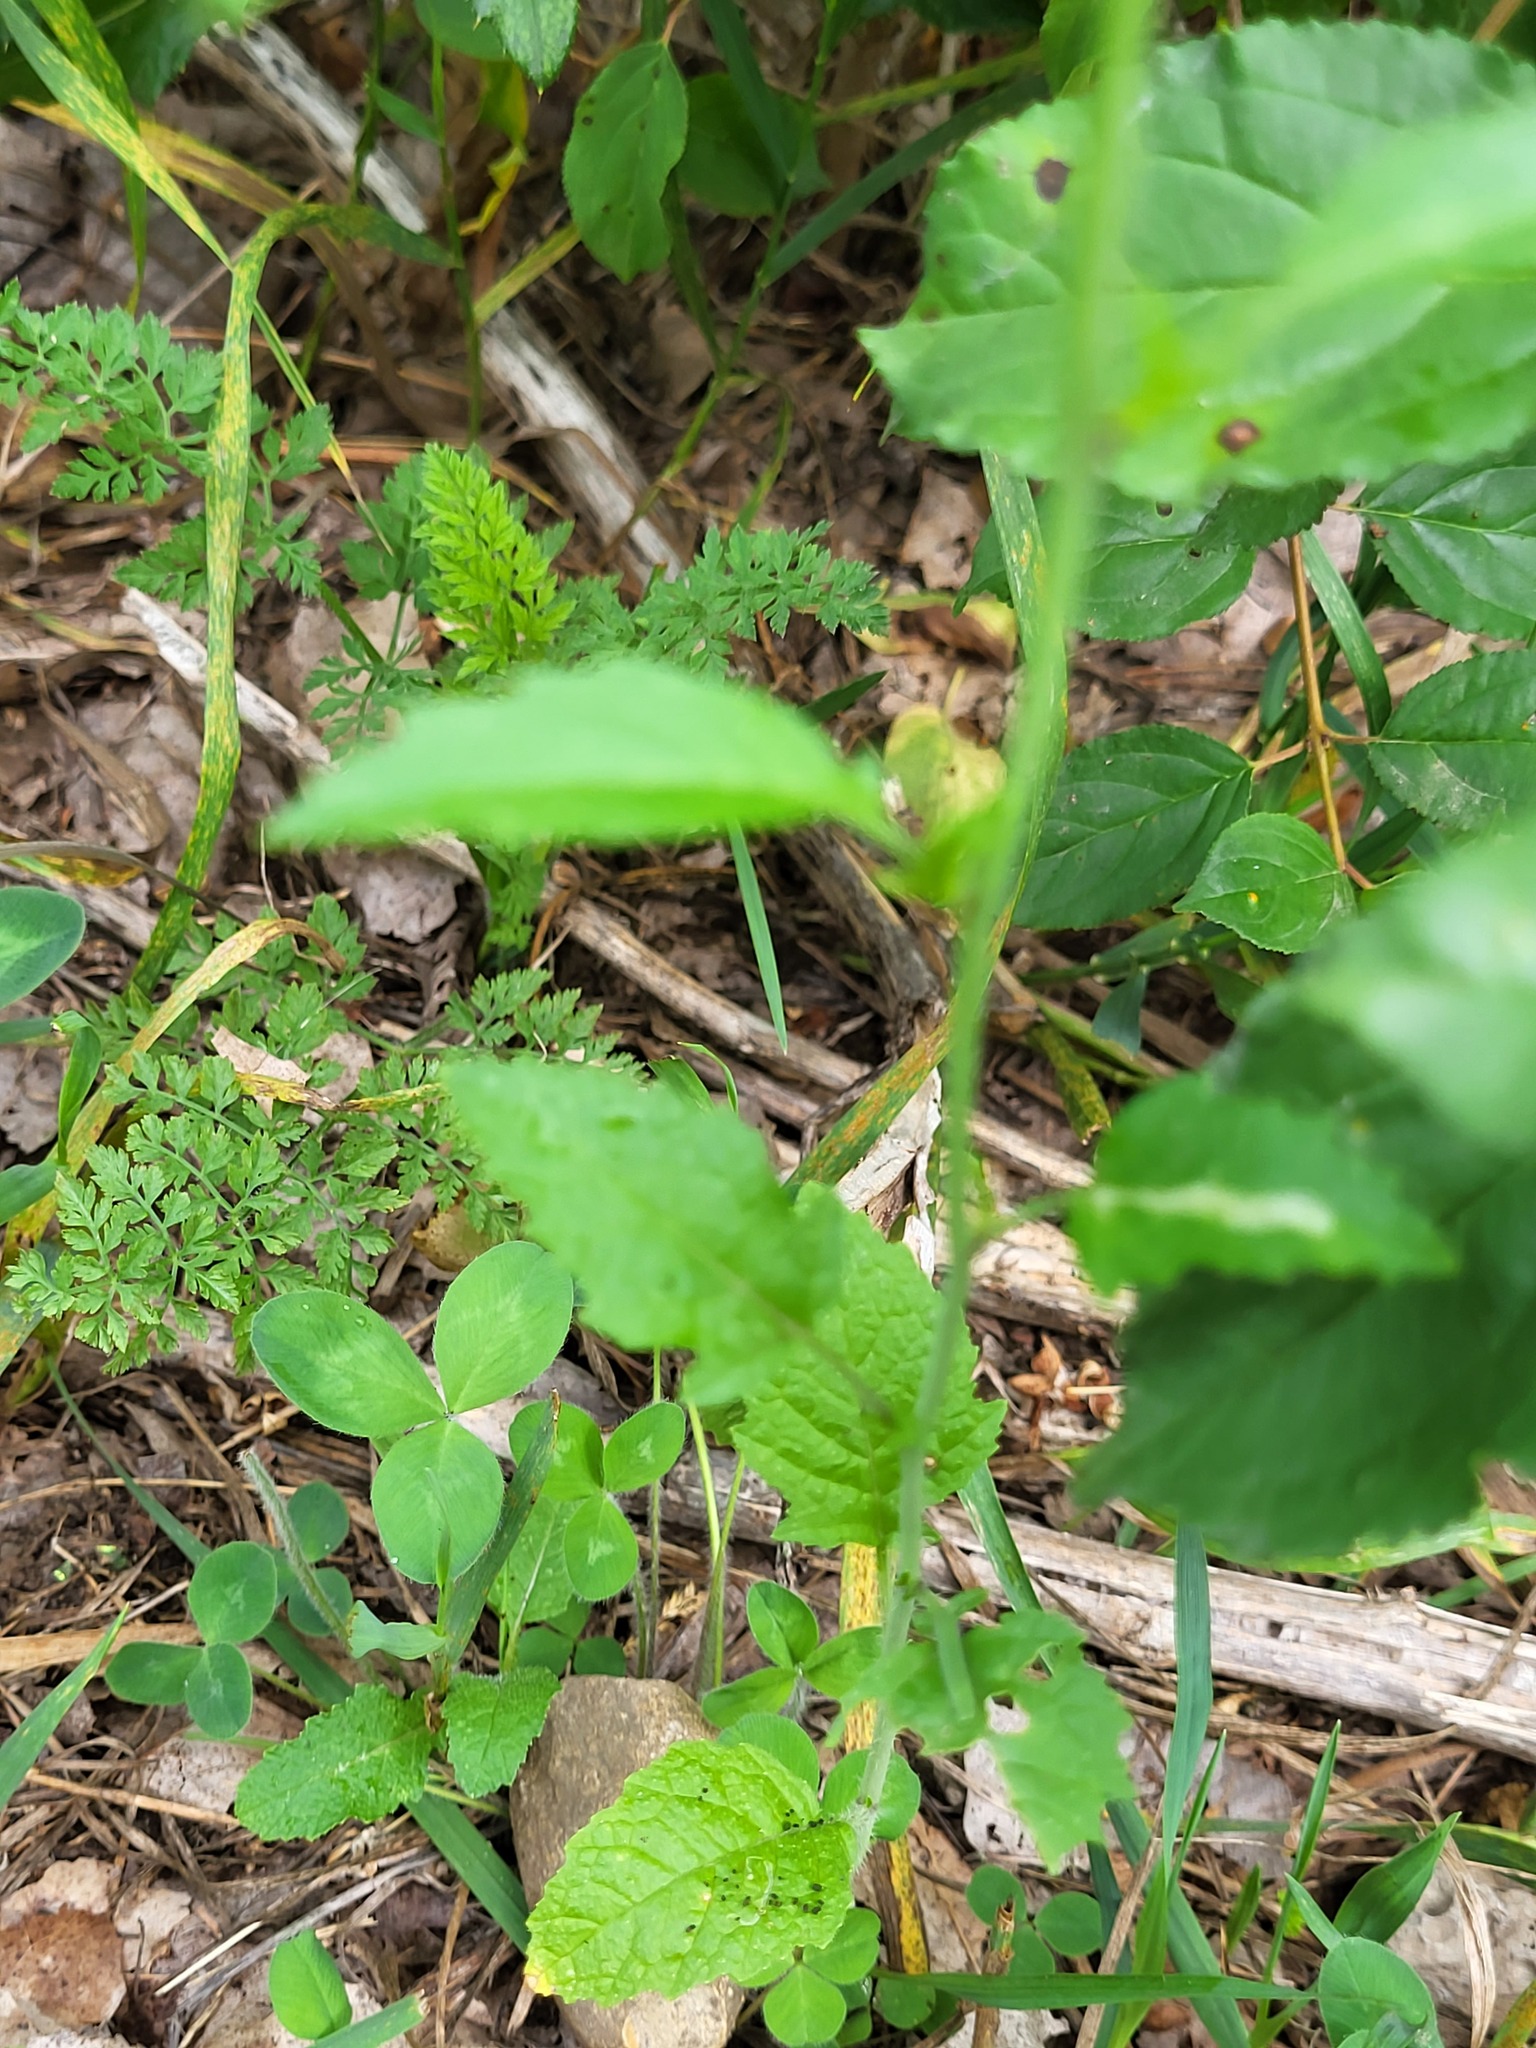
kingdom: Plantae
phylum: Tracheophyta
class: Magnoliopsida
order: Brassicales
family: Brassicaceae
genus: Sinapis
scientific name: Sinapis arvensis
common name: Charlock
